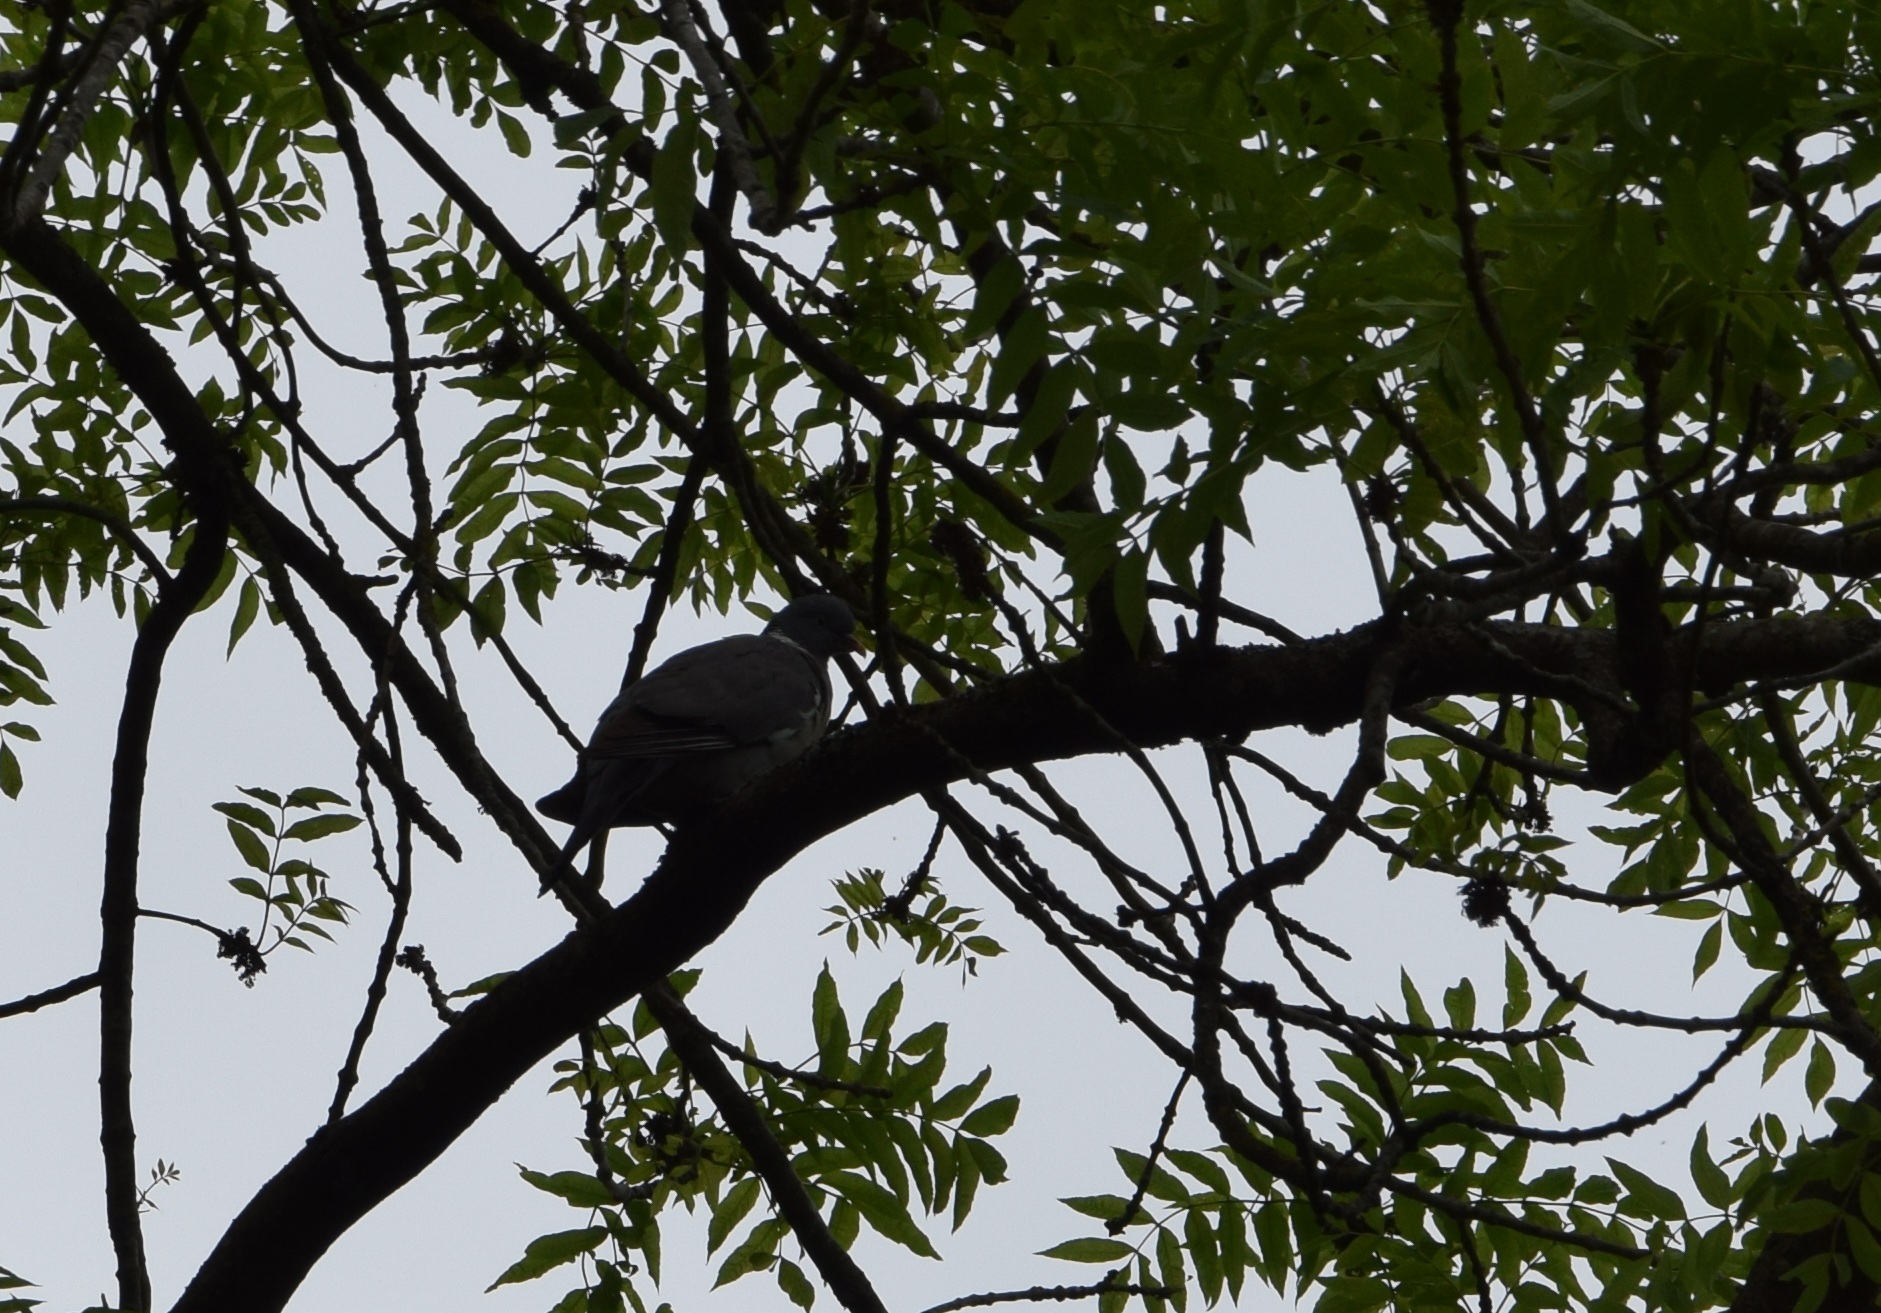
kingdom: Animalia
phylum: Chordata
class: Aves
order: Columbiformes
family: Columbidae
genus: Columba
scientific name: Columba palumbus
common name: Common wood pigeon
